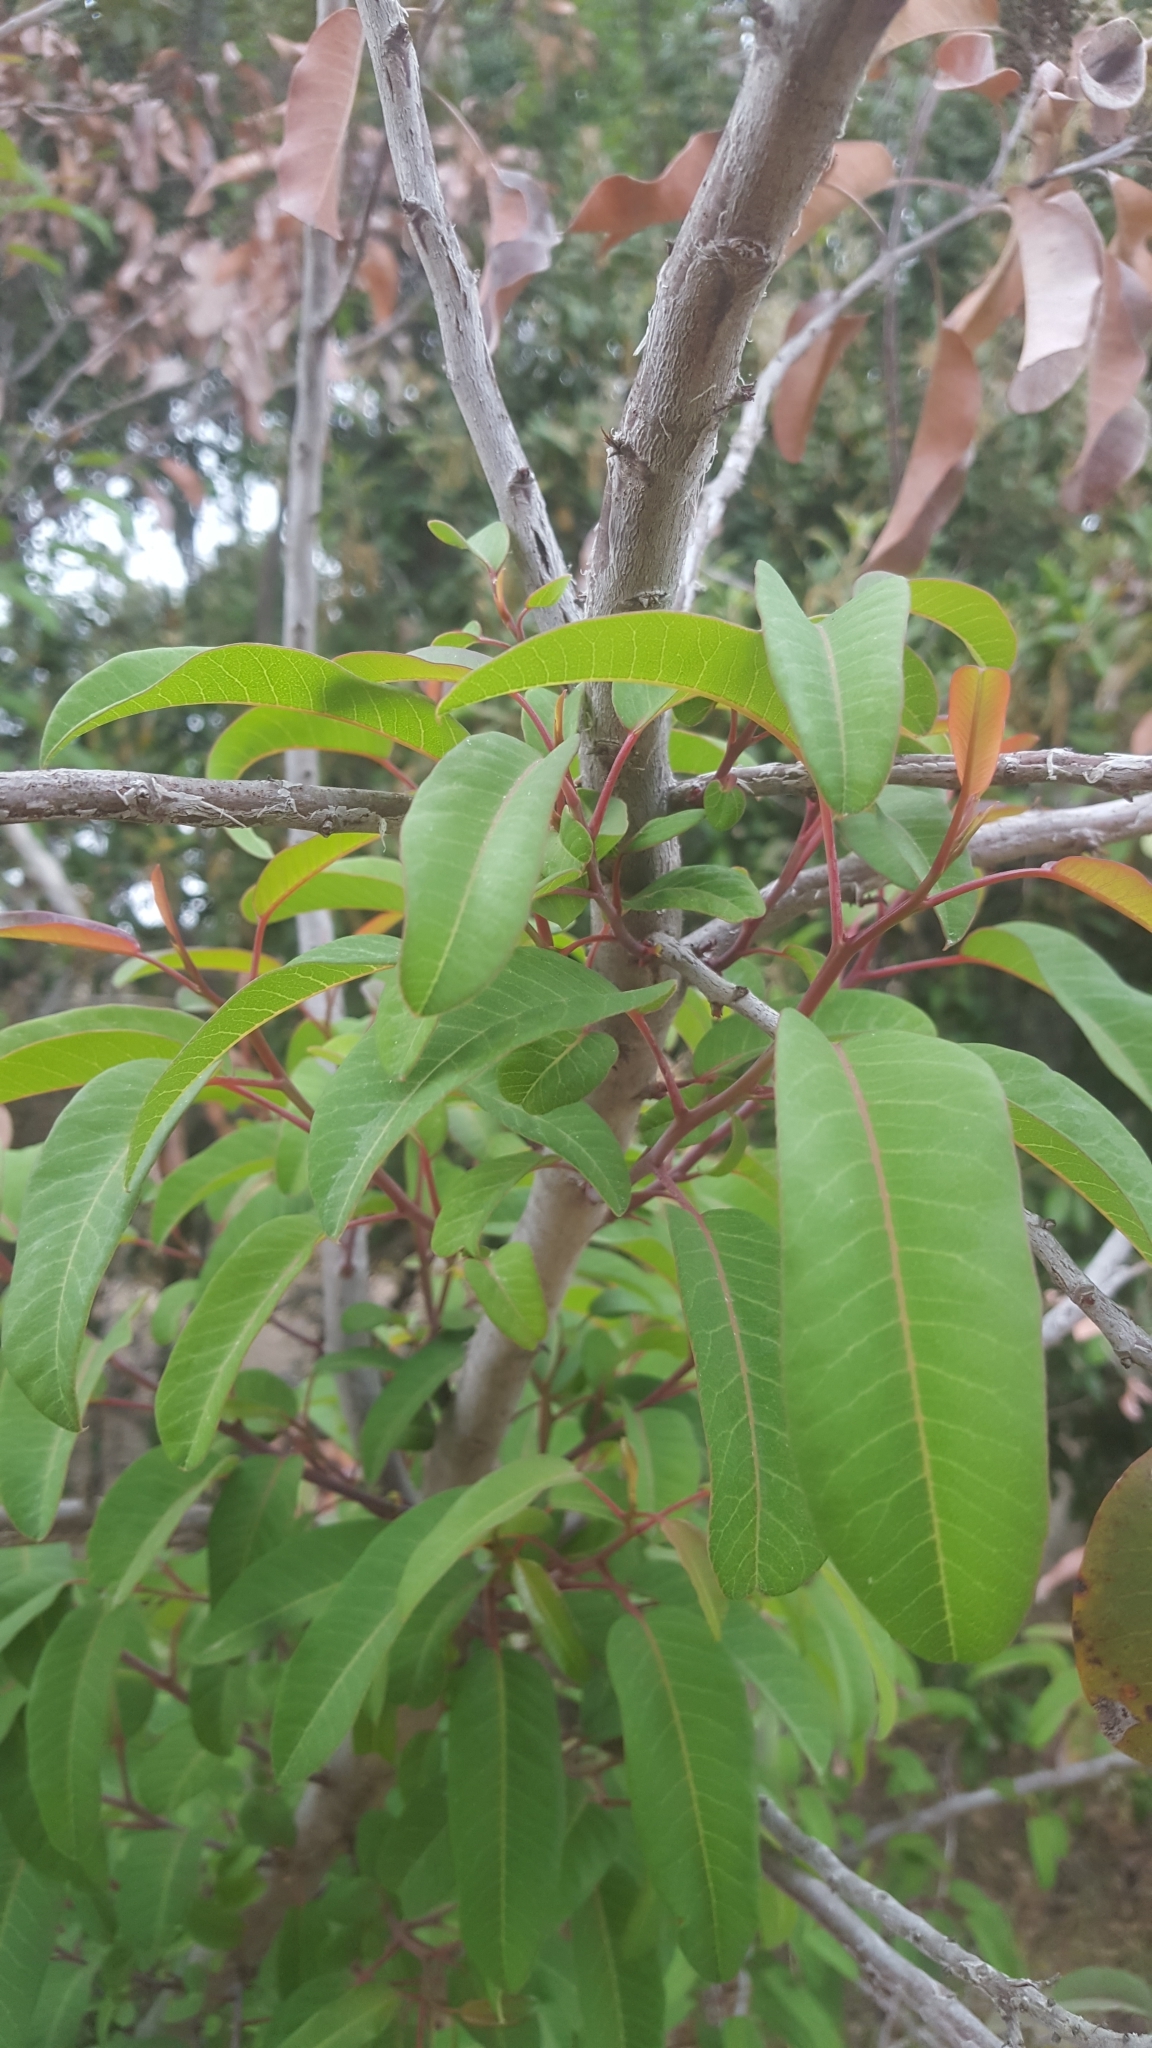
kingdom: Plantae
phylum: Tracheophyta
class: Magnoliopsida
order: Sapindales
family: Anacardiaceae
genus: Malosma
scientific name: Malosma laurina
